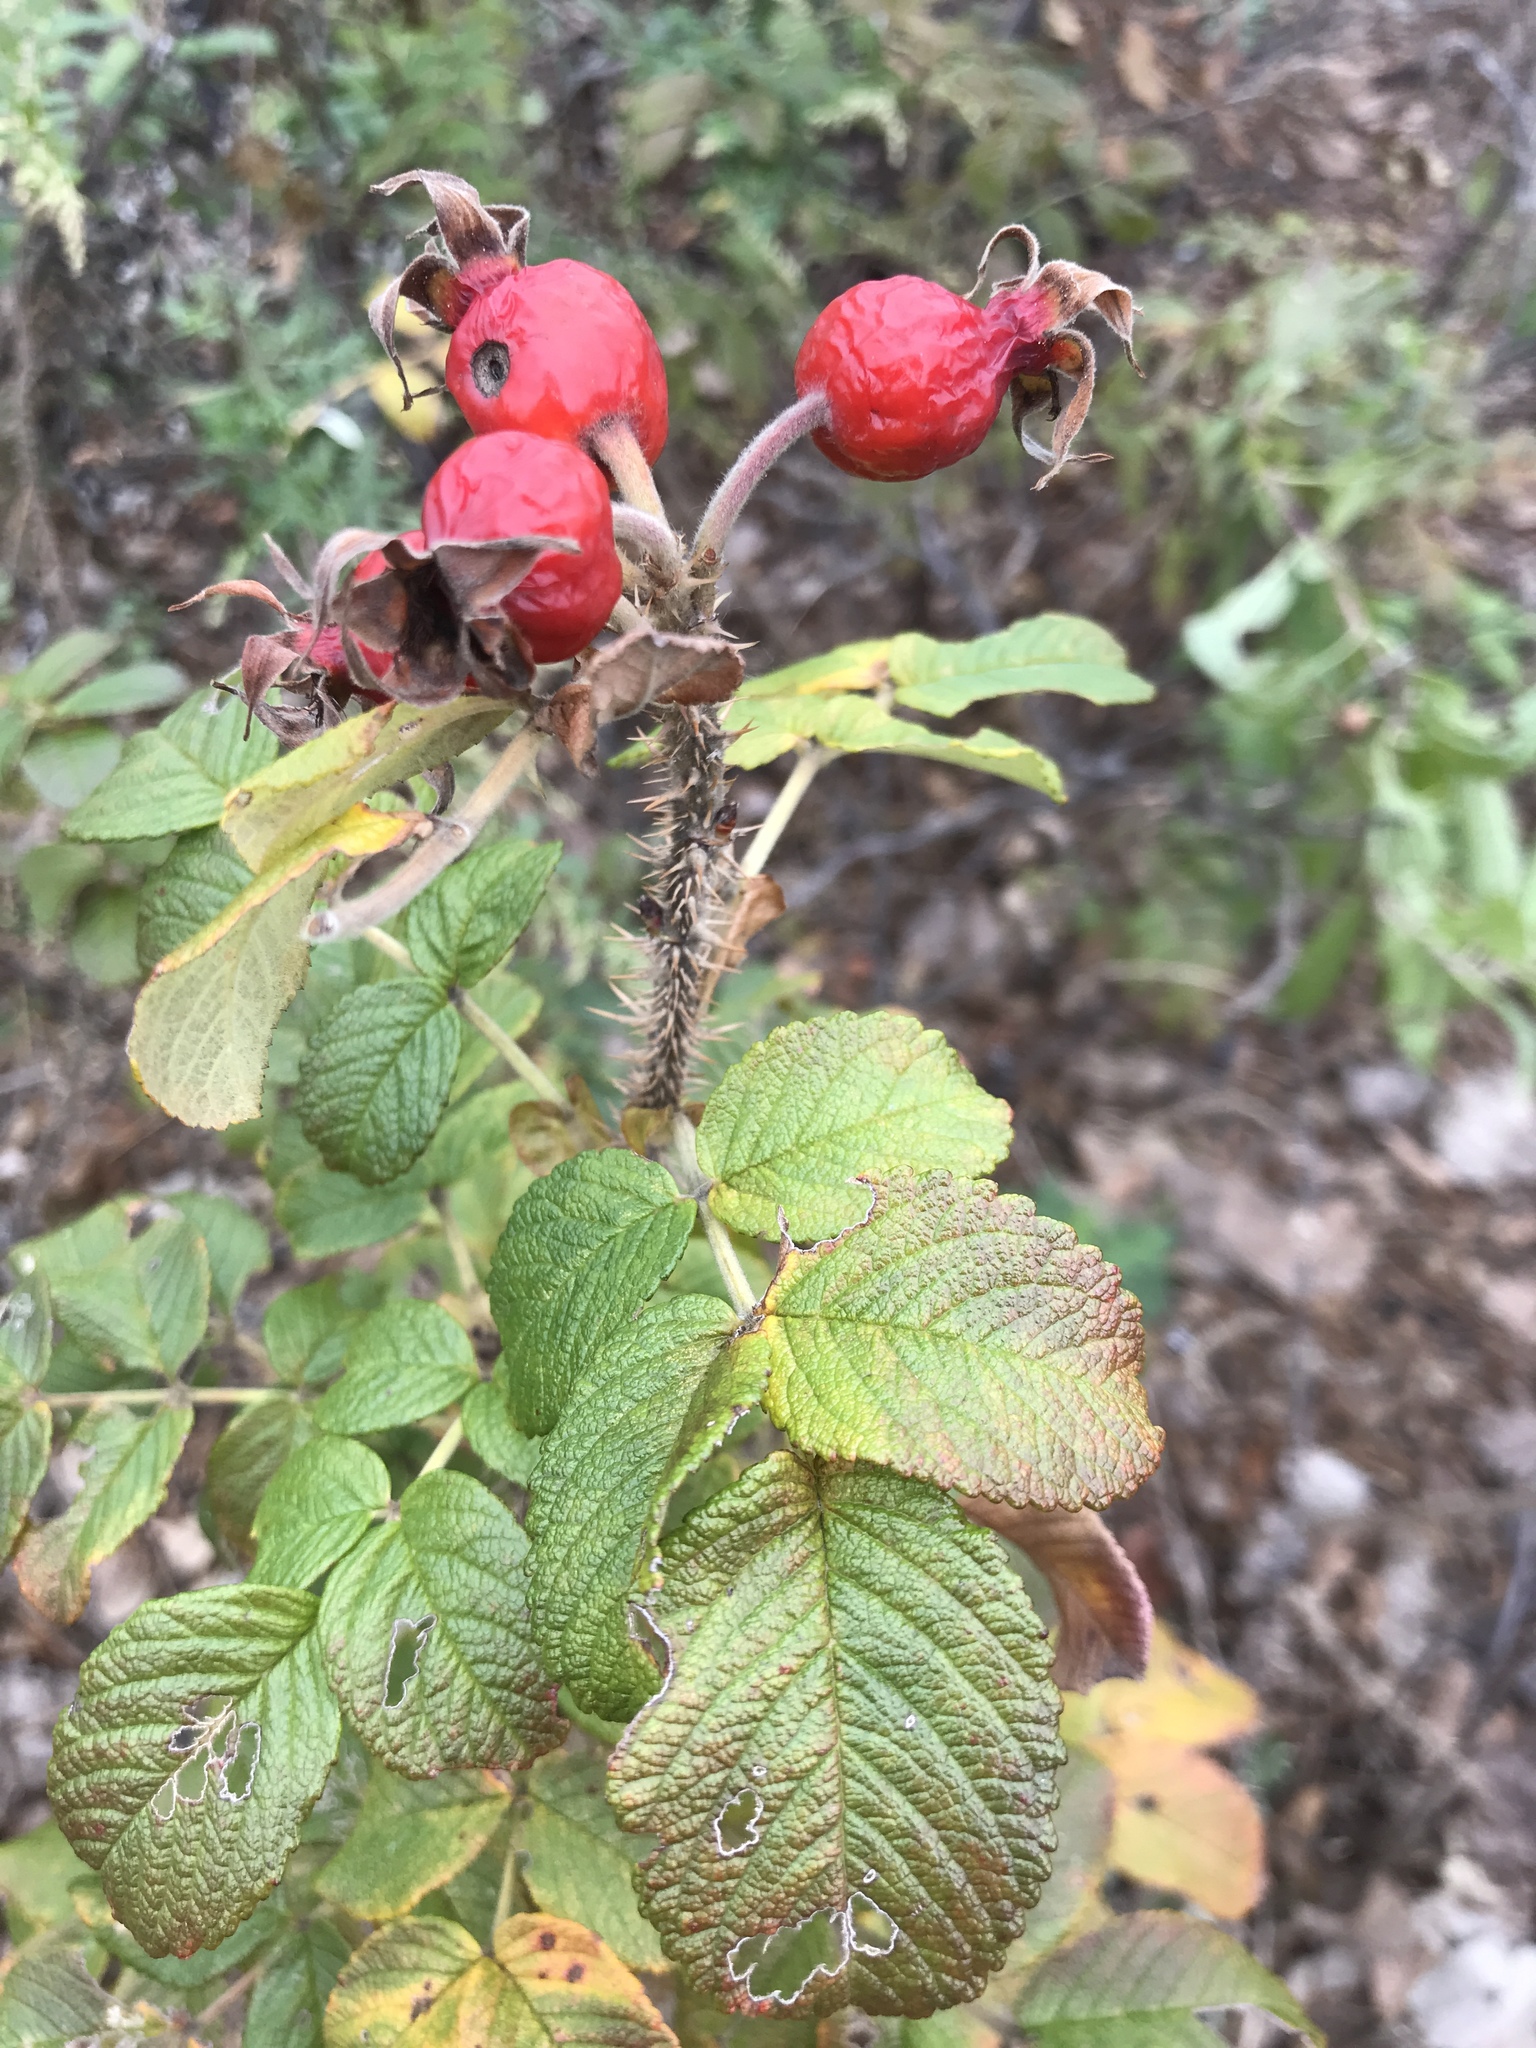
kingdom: Plantae
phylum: Tracheophyta
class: Magnoliopsida
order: Rosales
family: Rosaceae
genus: Rosa
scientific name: Rosa rugosa
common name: Japanese rose
